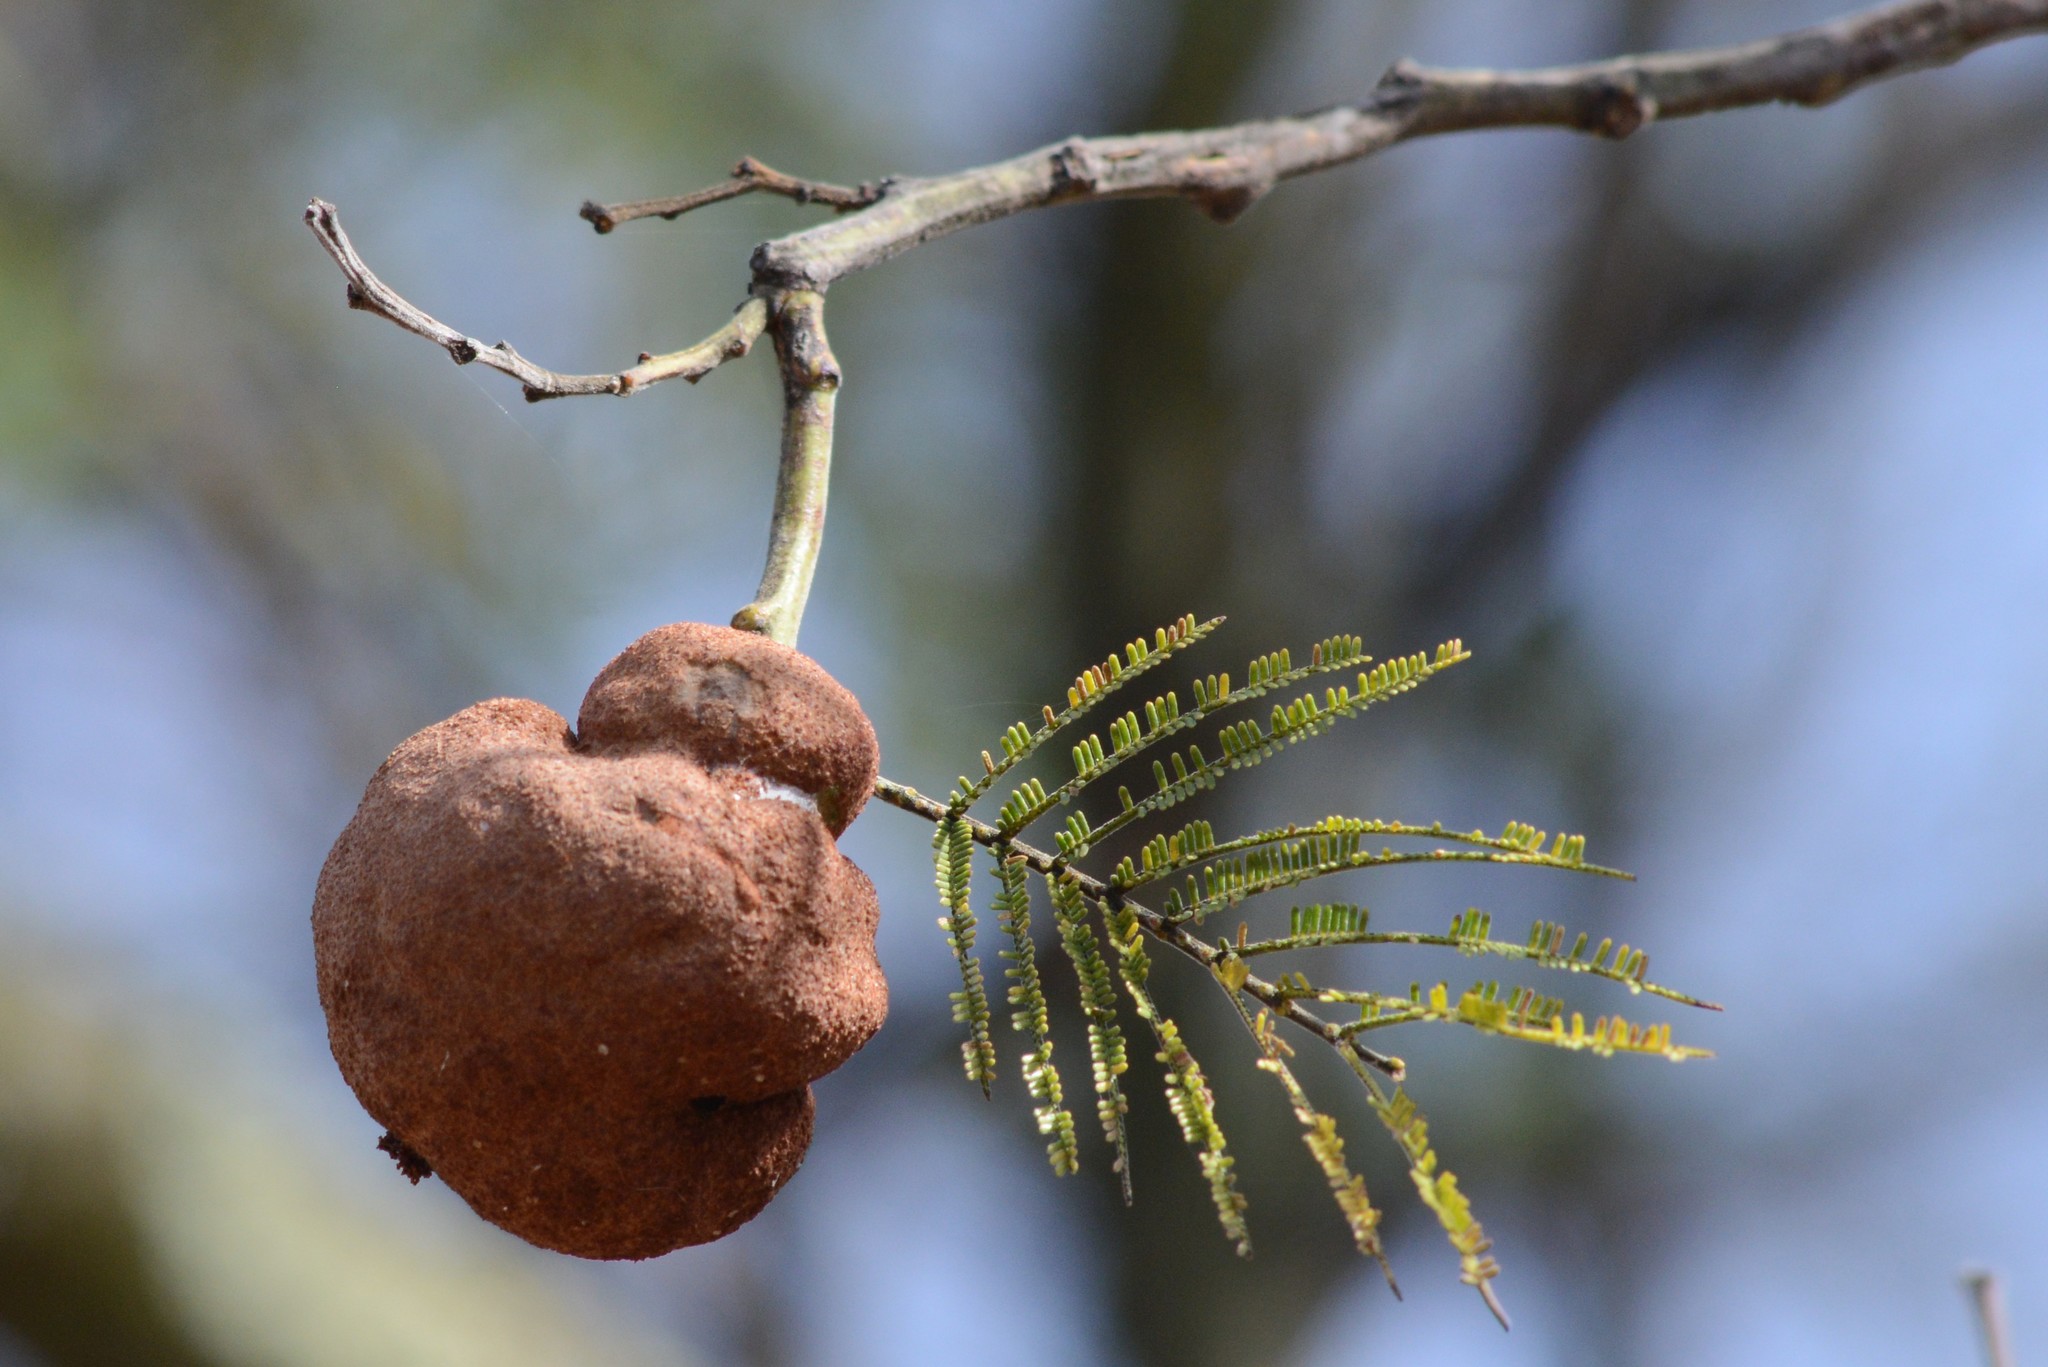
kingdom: Fungi
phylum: Basidiomycota
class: Pucciniomycetes
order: Pucciniales
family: Uromycladiaceae
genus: Uromycladium
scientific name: Uromycladium murphyi
